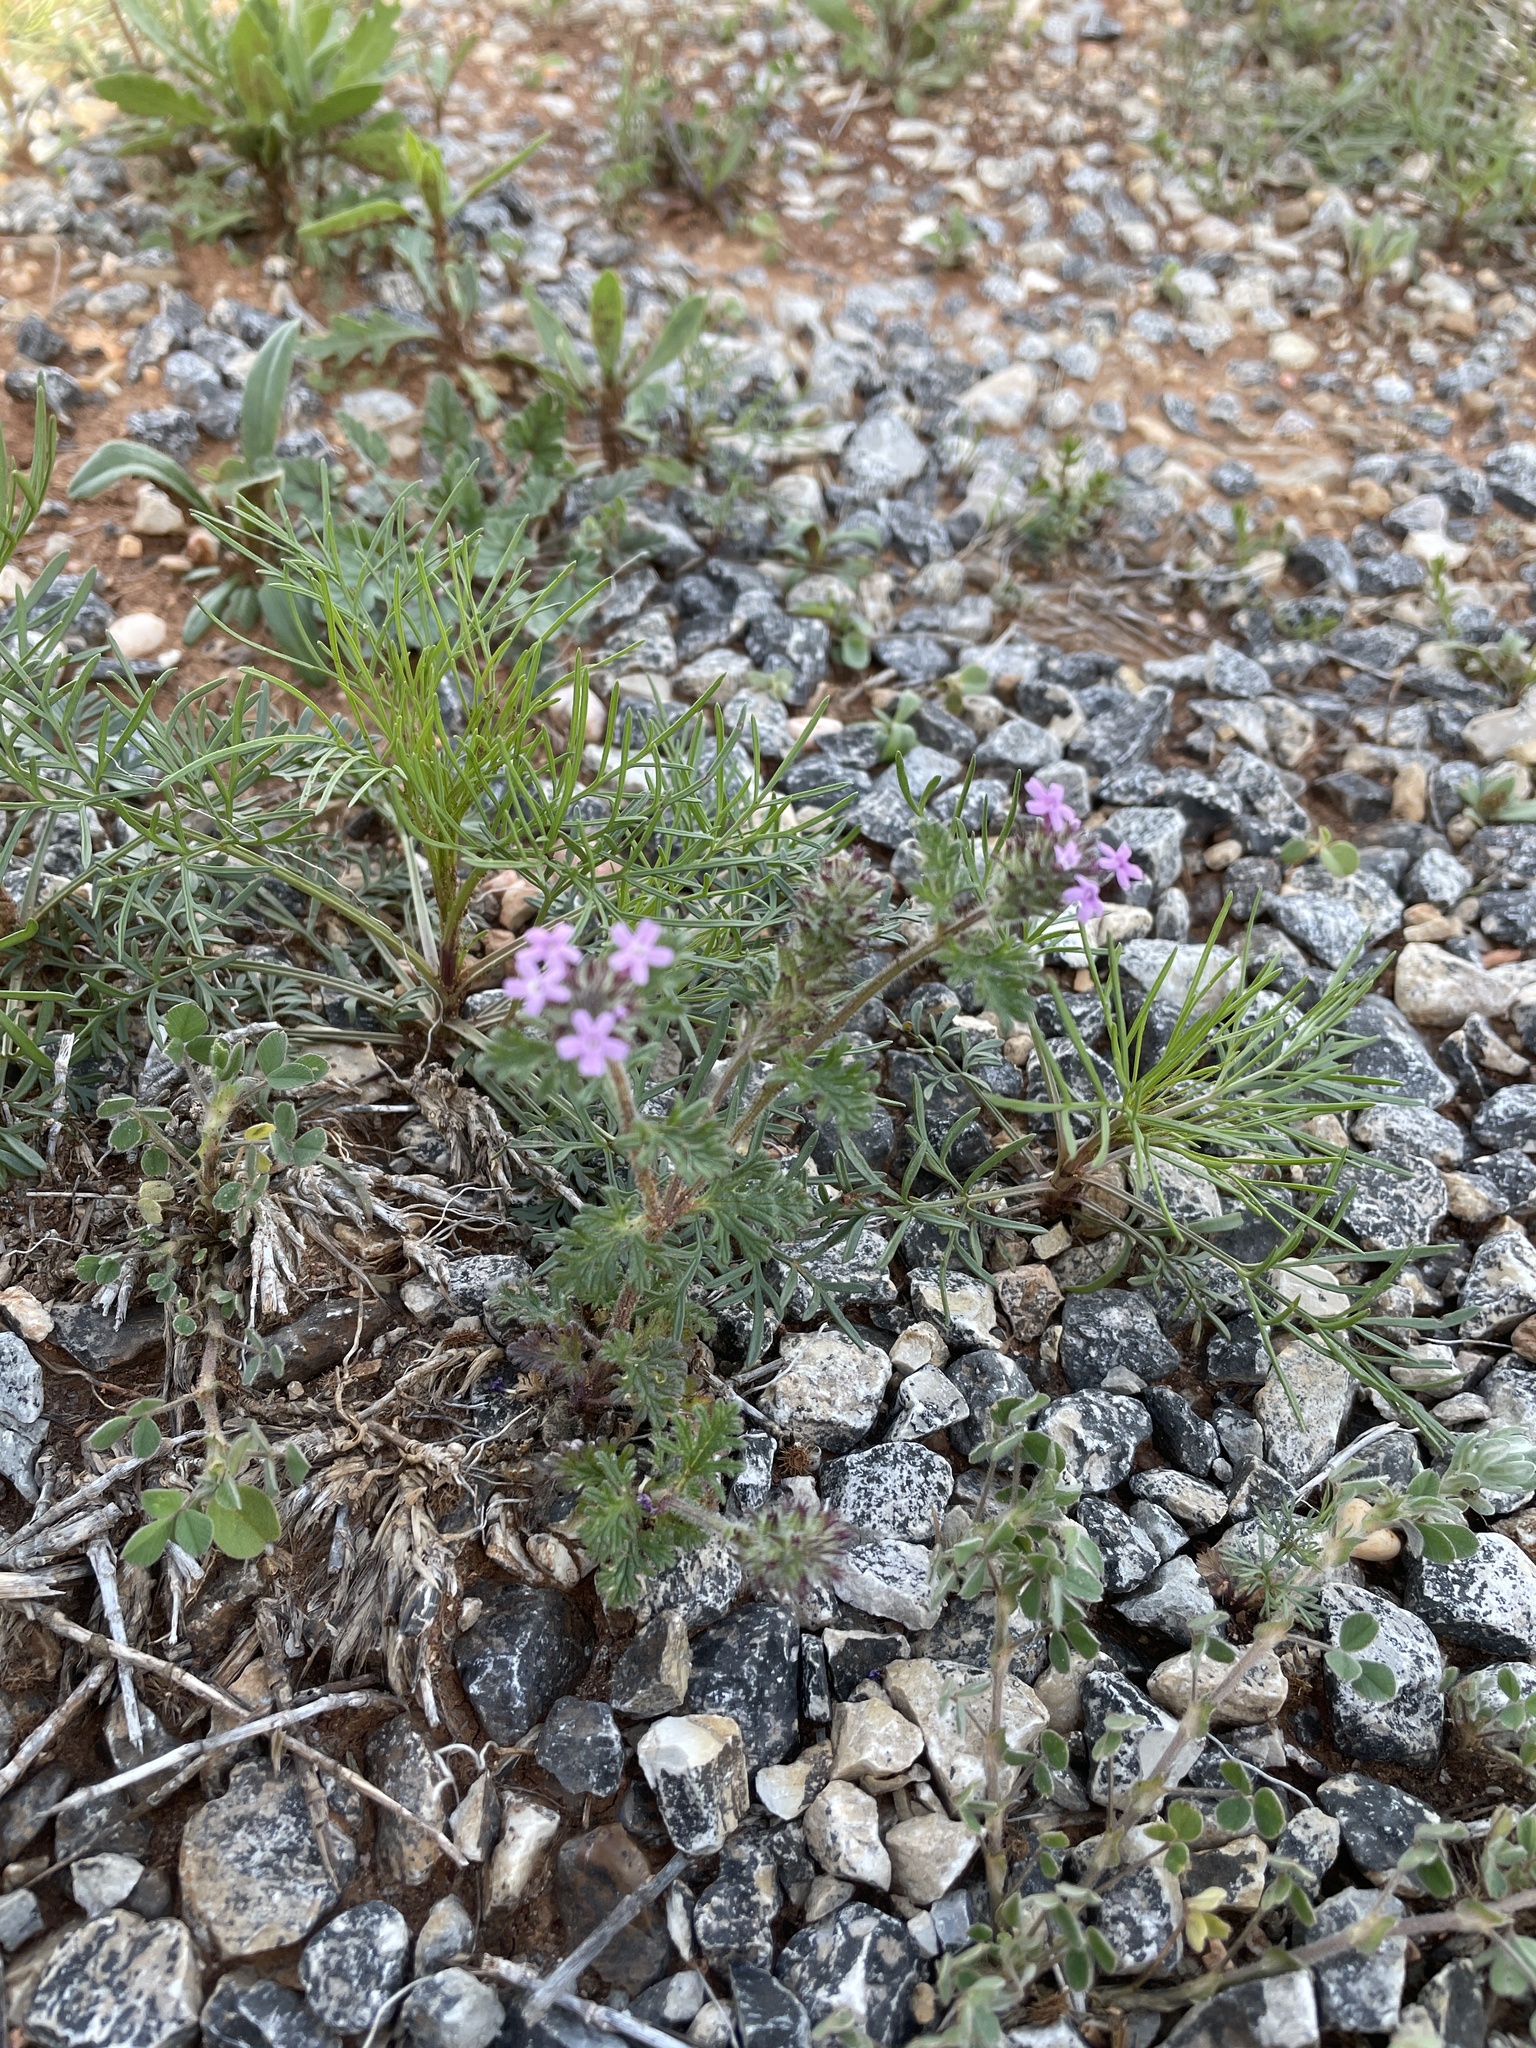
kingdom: Plantae
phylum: Tracheophyta
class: Magnoliopsida
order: Lamiales
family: Verbenaceae
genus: Verbena
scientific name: Verbena pumila
